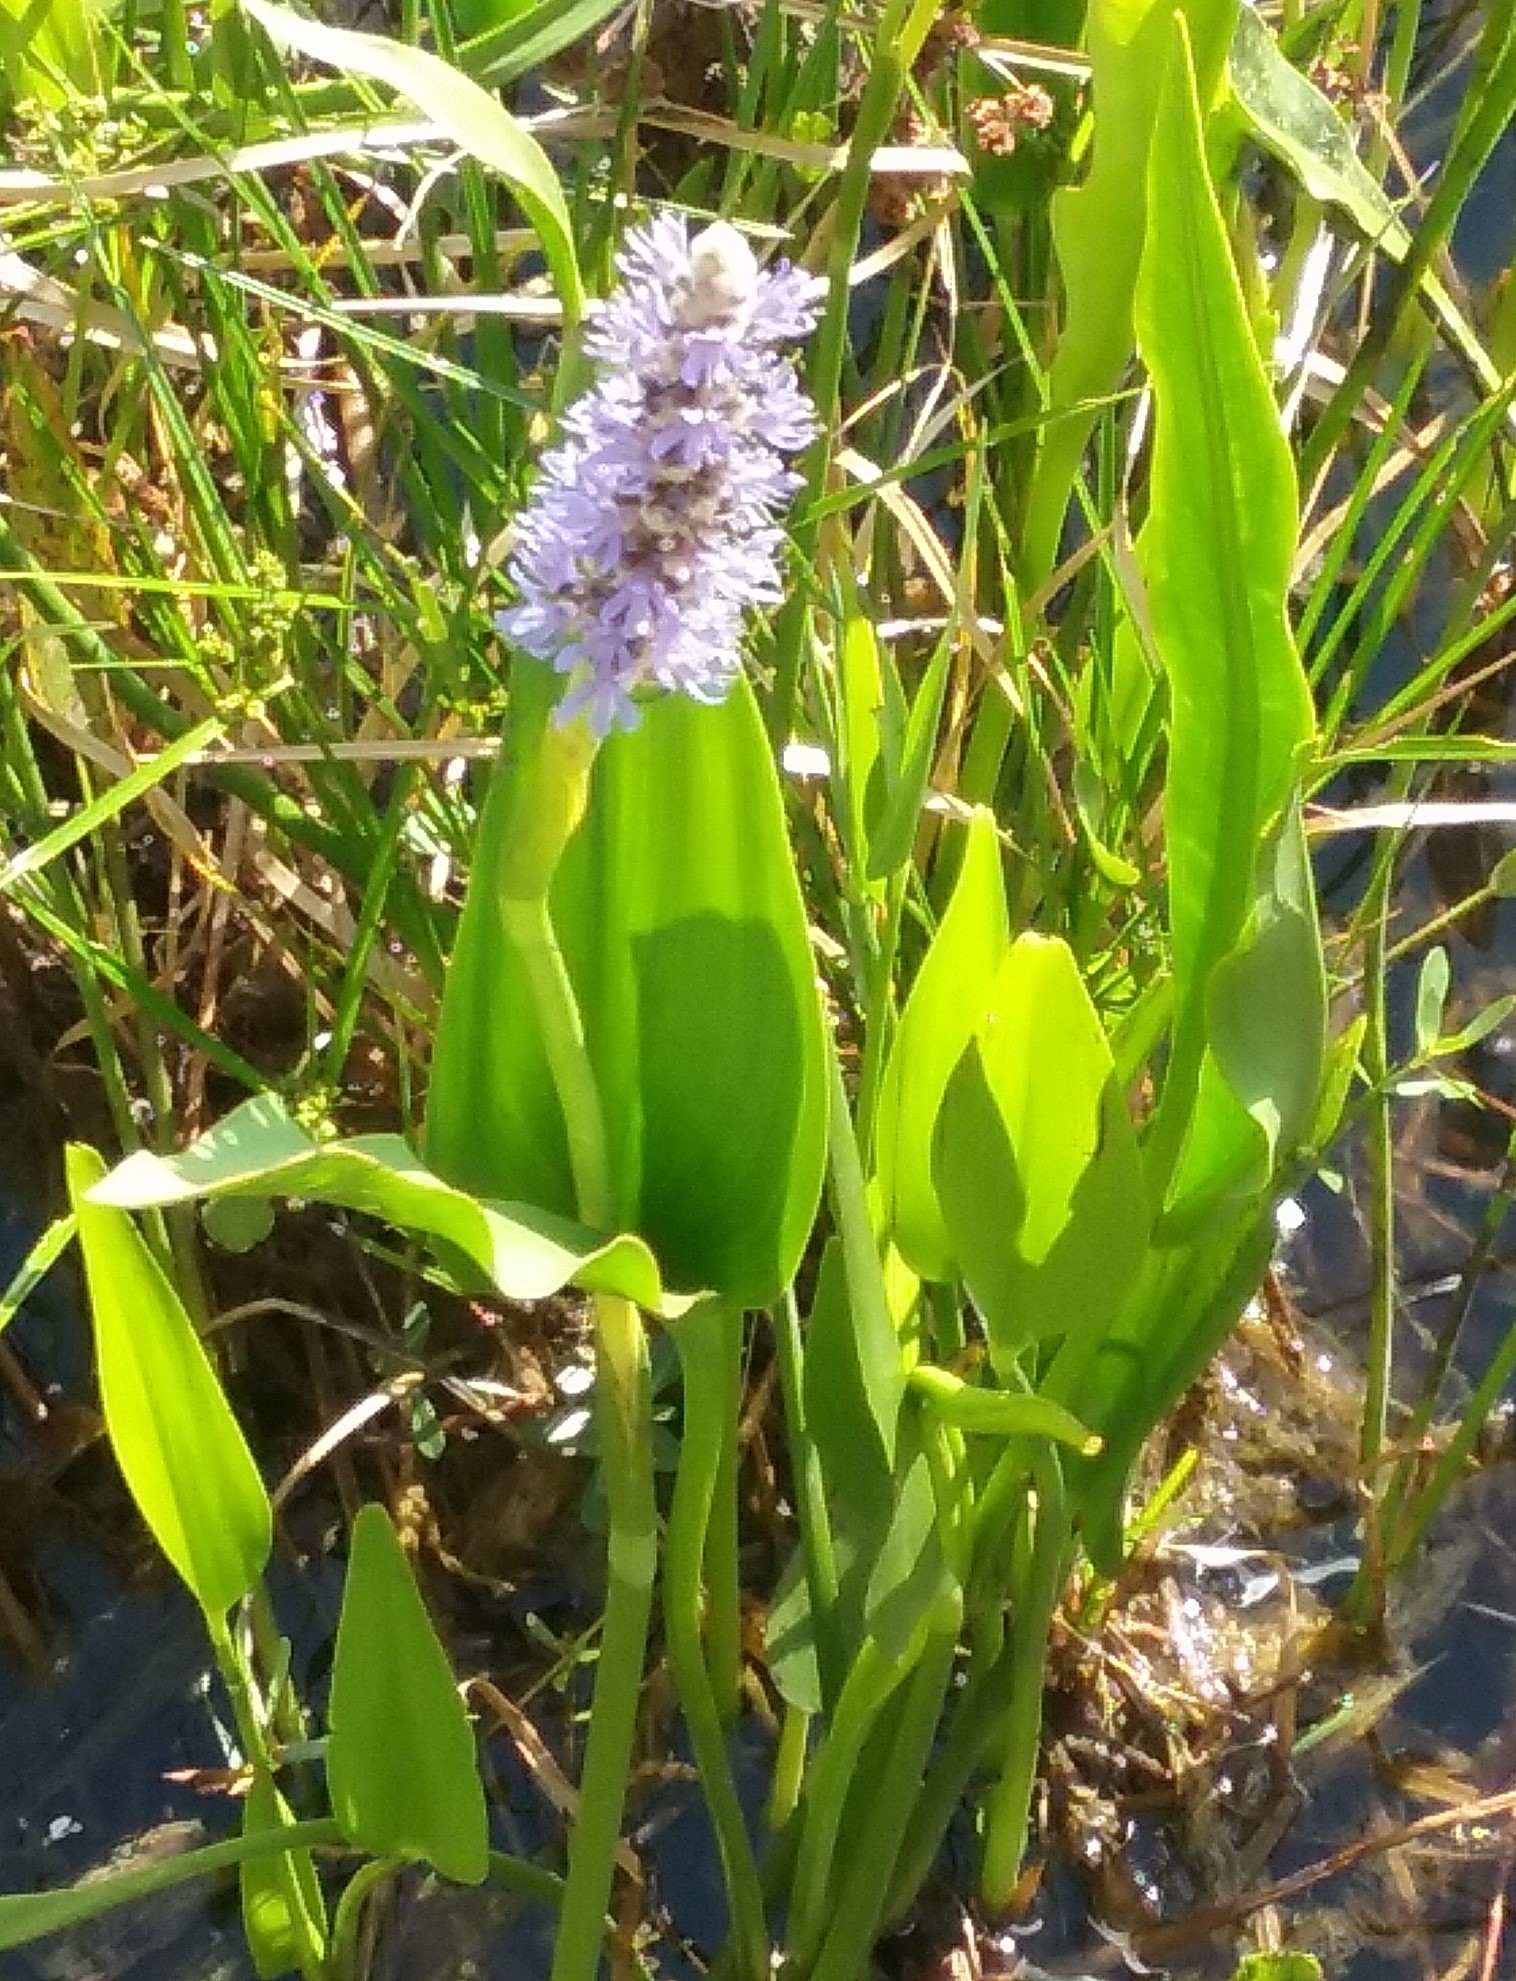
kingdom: Plantae
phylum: Tracheophyta
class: Liliopsida
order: Commelinales
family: Pontederiaceae
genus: Pontederia
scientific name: Pontederia cordata
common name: Pickerelweed
